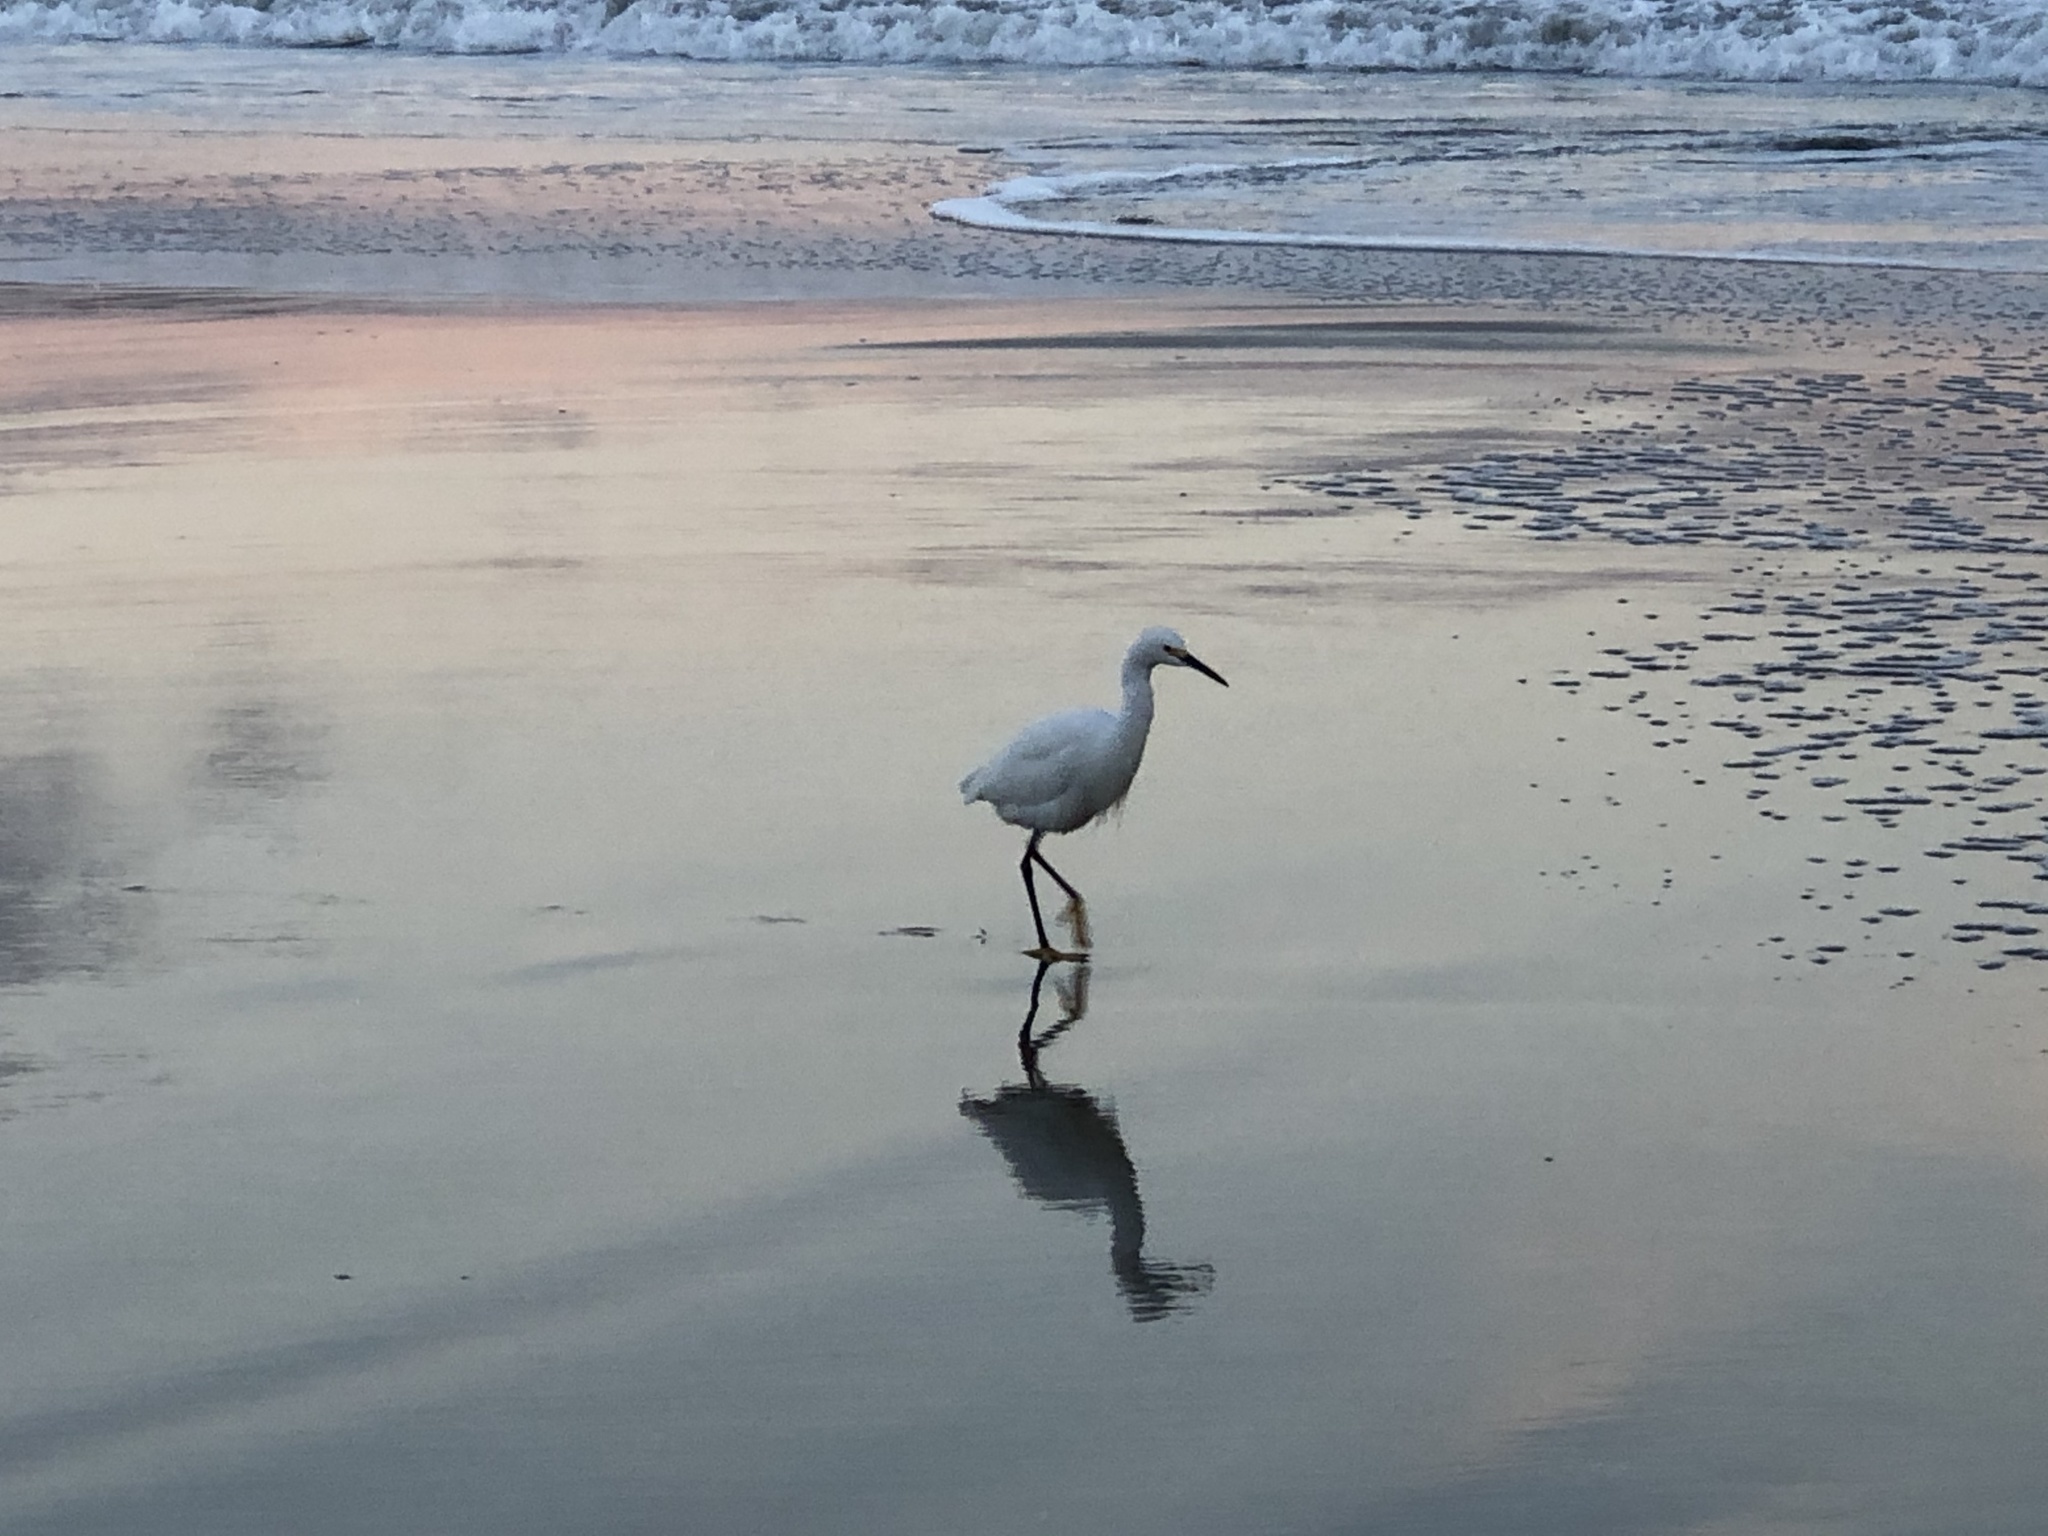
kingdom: Animalia
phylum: Chordata
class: Aves
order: Pelecaniformes
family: Ardeidae
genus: Egretta
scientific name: Egretta thula
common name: Snowy egret
